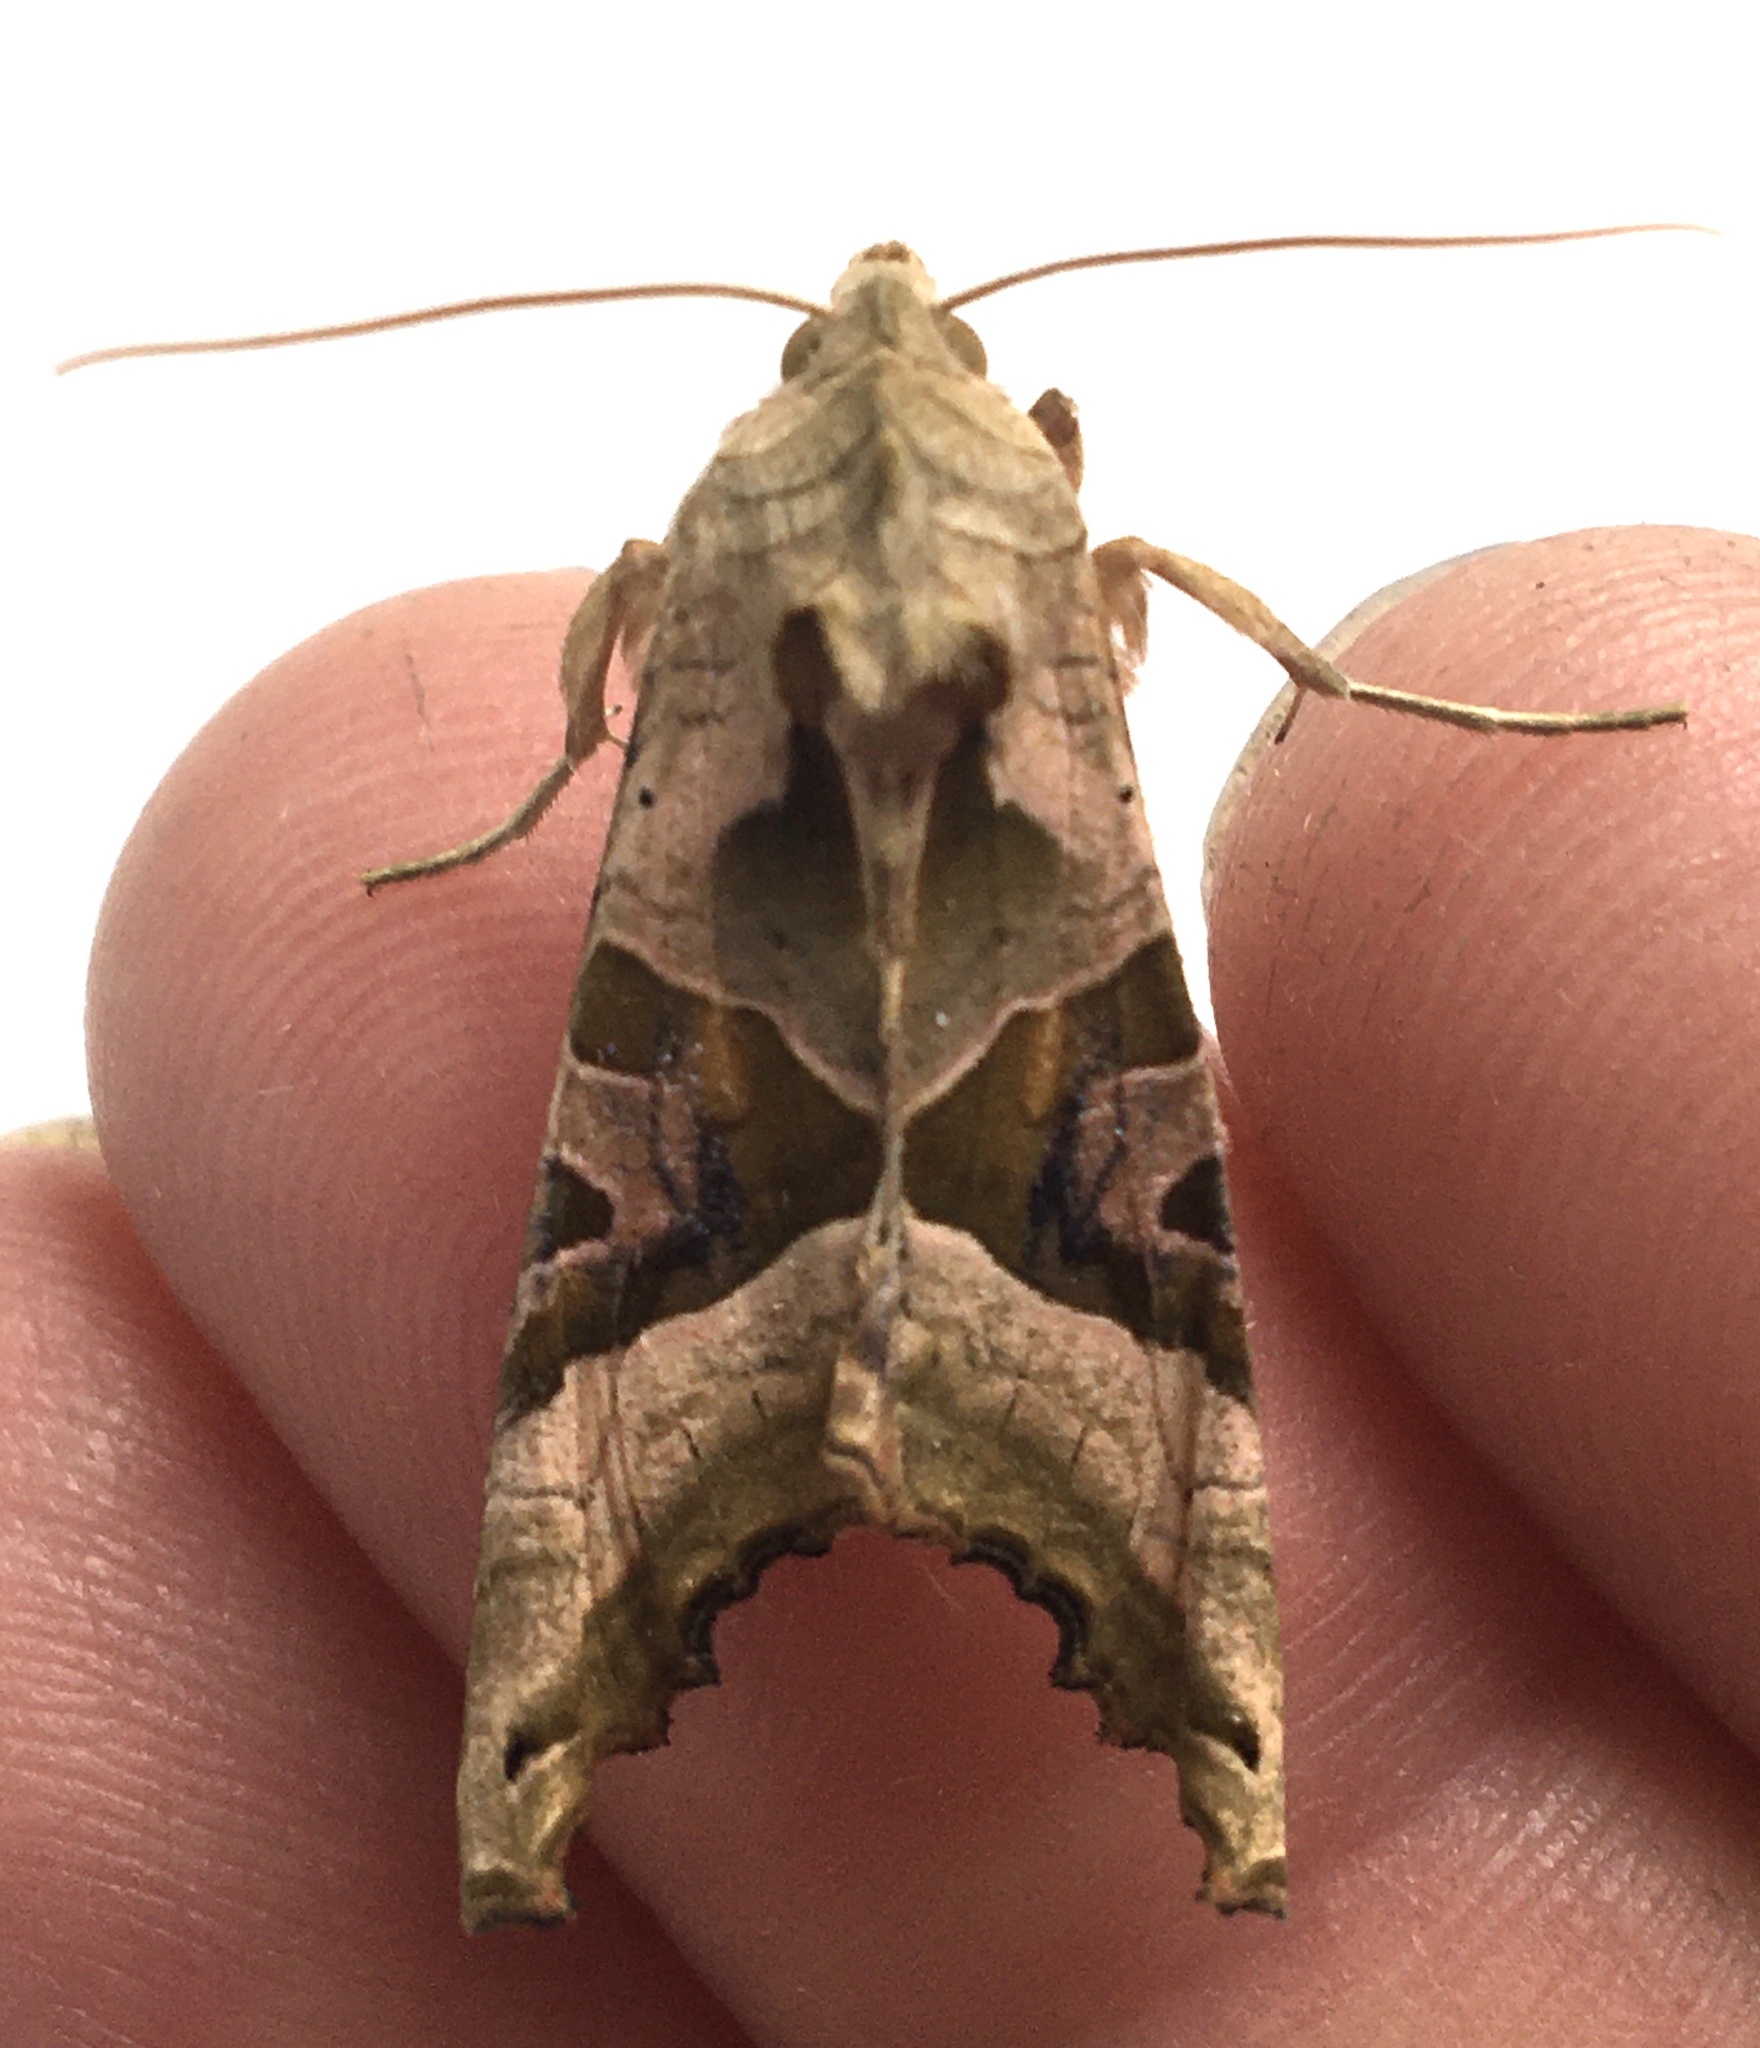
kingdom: Animalia
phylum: Arthropoda
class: Insecta
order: Lepidoptera
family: Noctuidae
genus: Phlogophora
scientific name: Phlogophora meticulosa
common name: Angle shades
